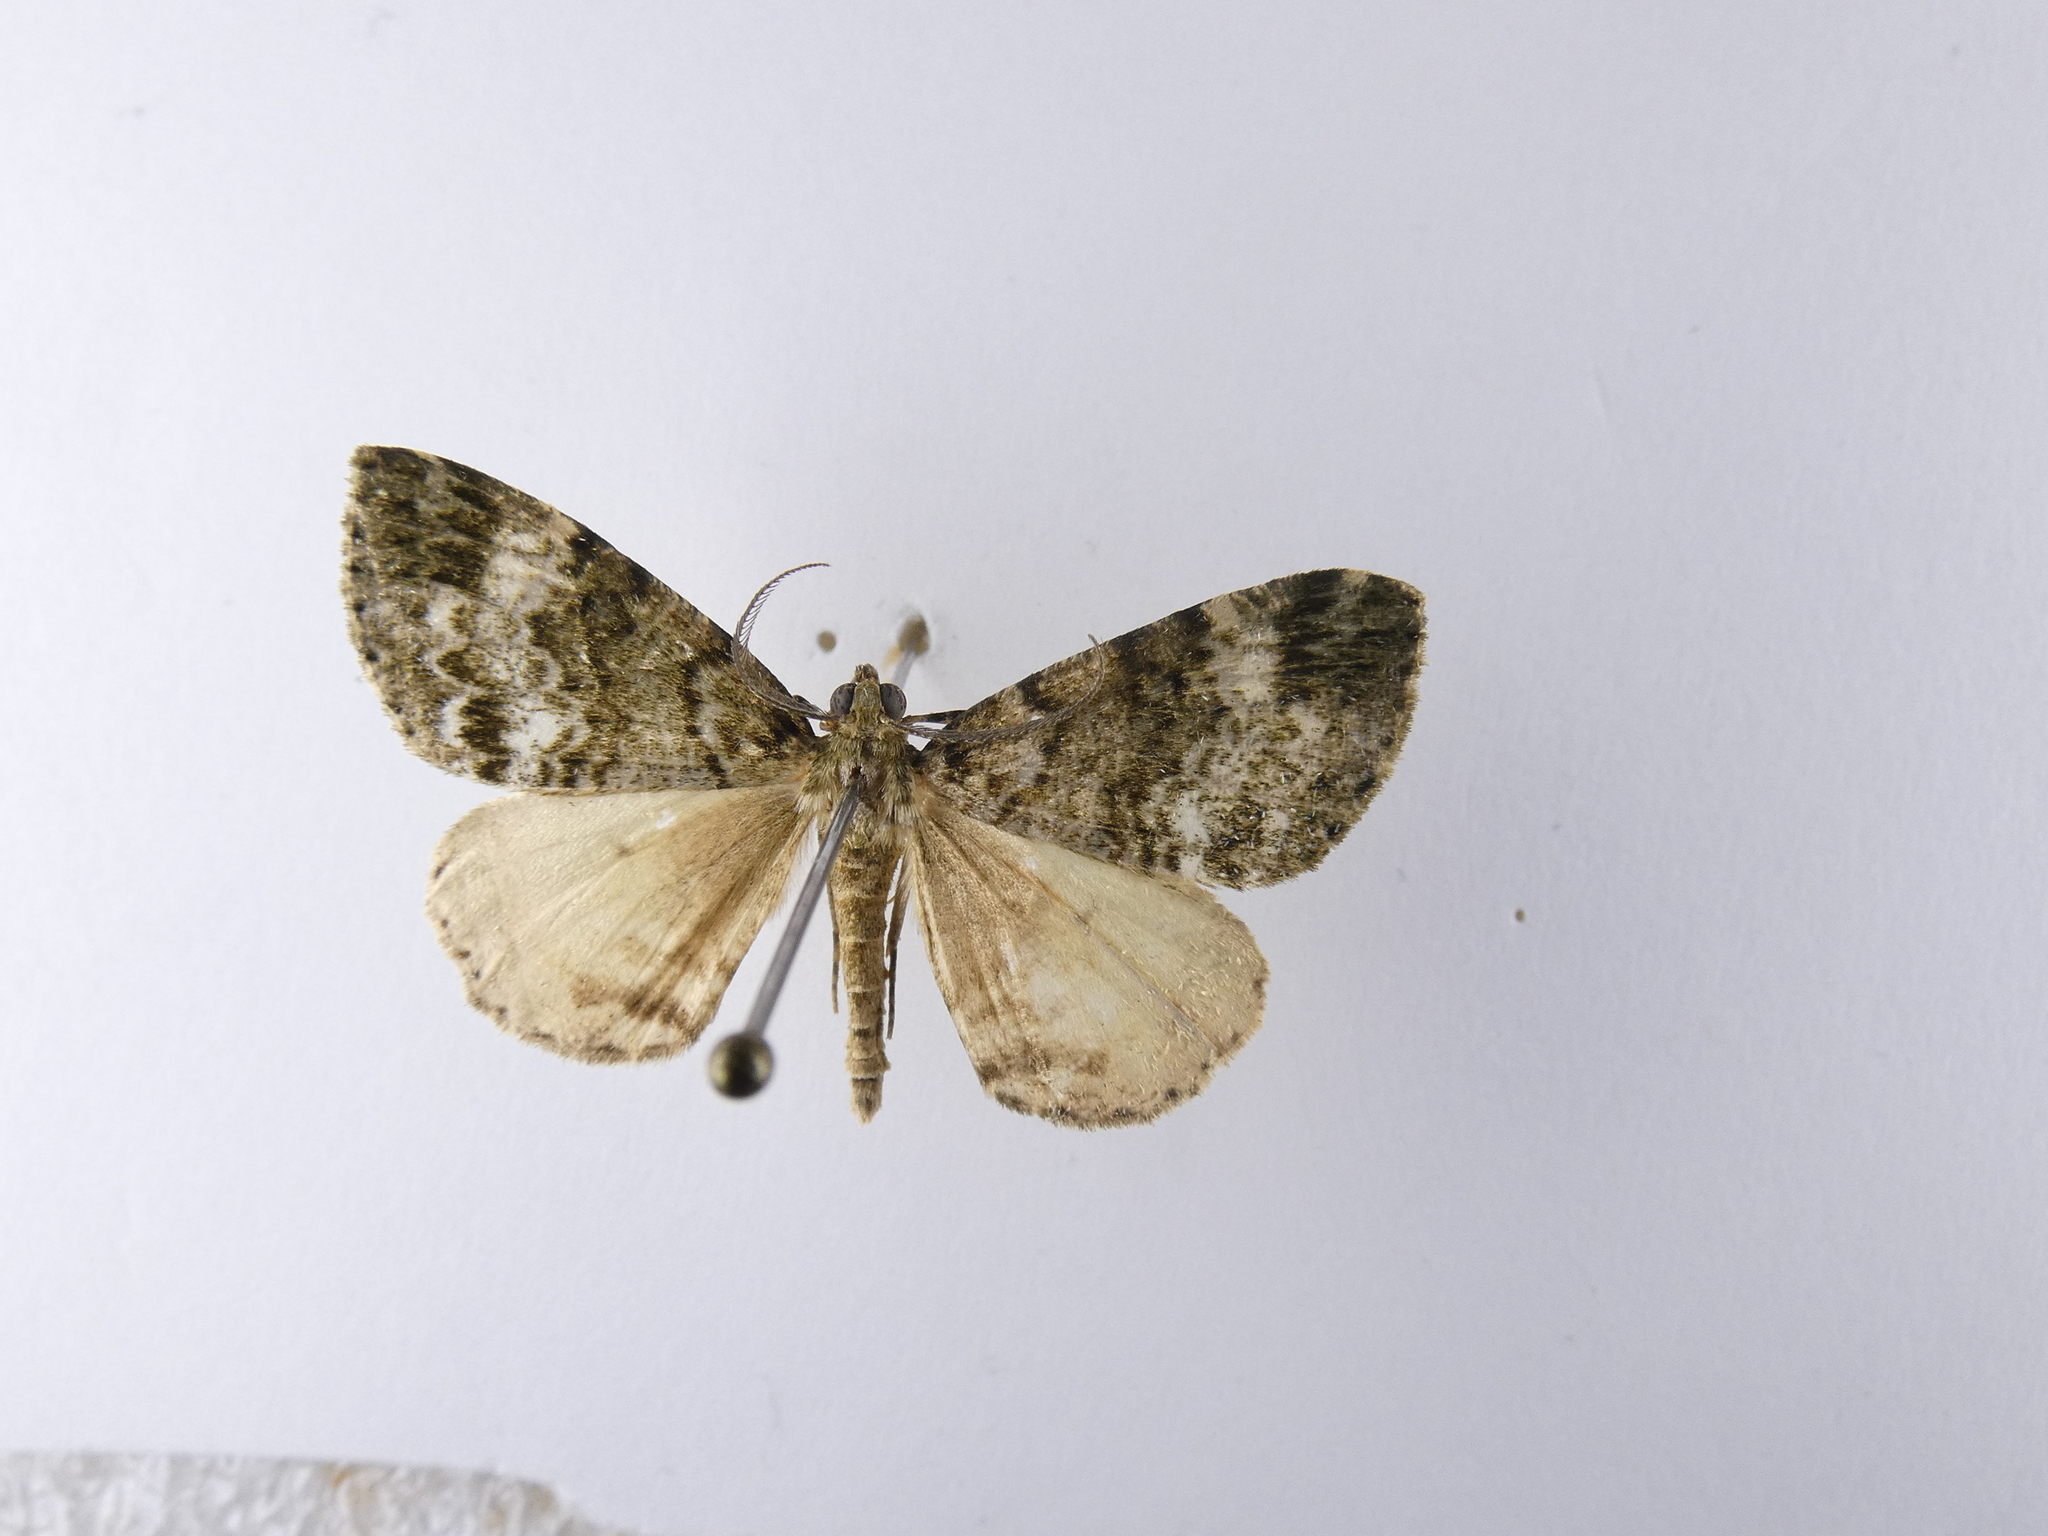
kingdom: Animalia
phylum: Arthropoda
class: Insecta
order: Lepidoptera
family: Geometridae
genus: Pseudocoremia
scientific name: Pseudocoremia indistincta
